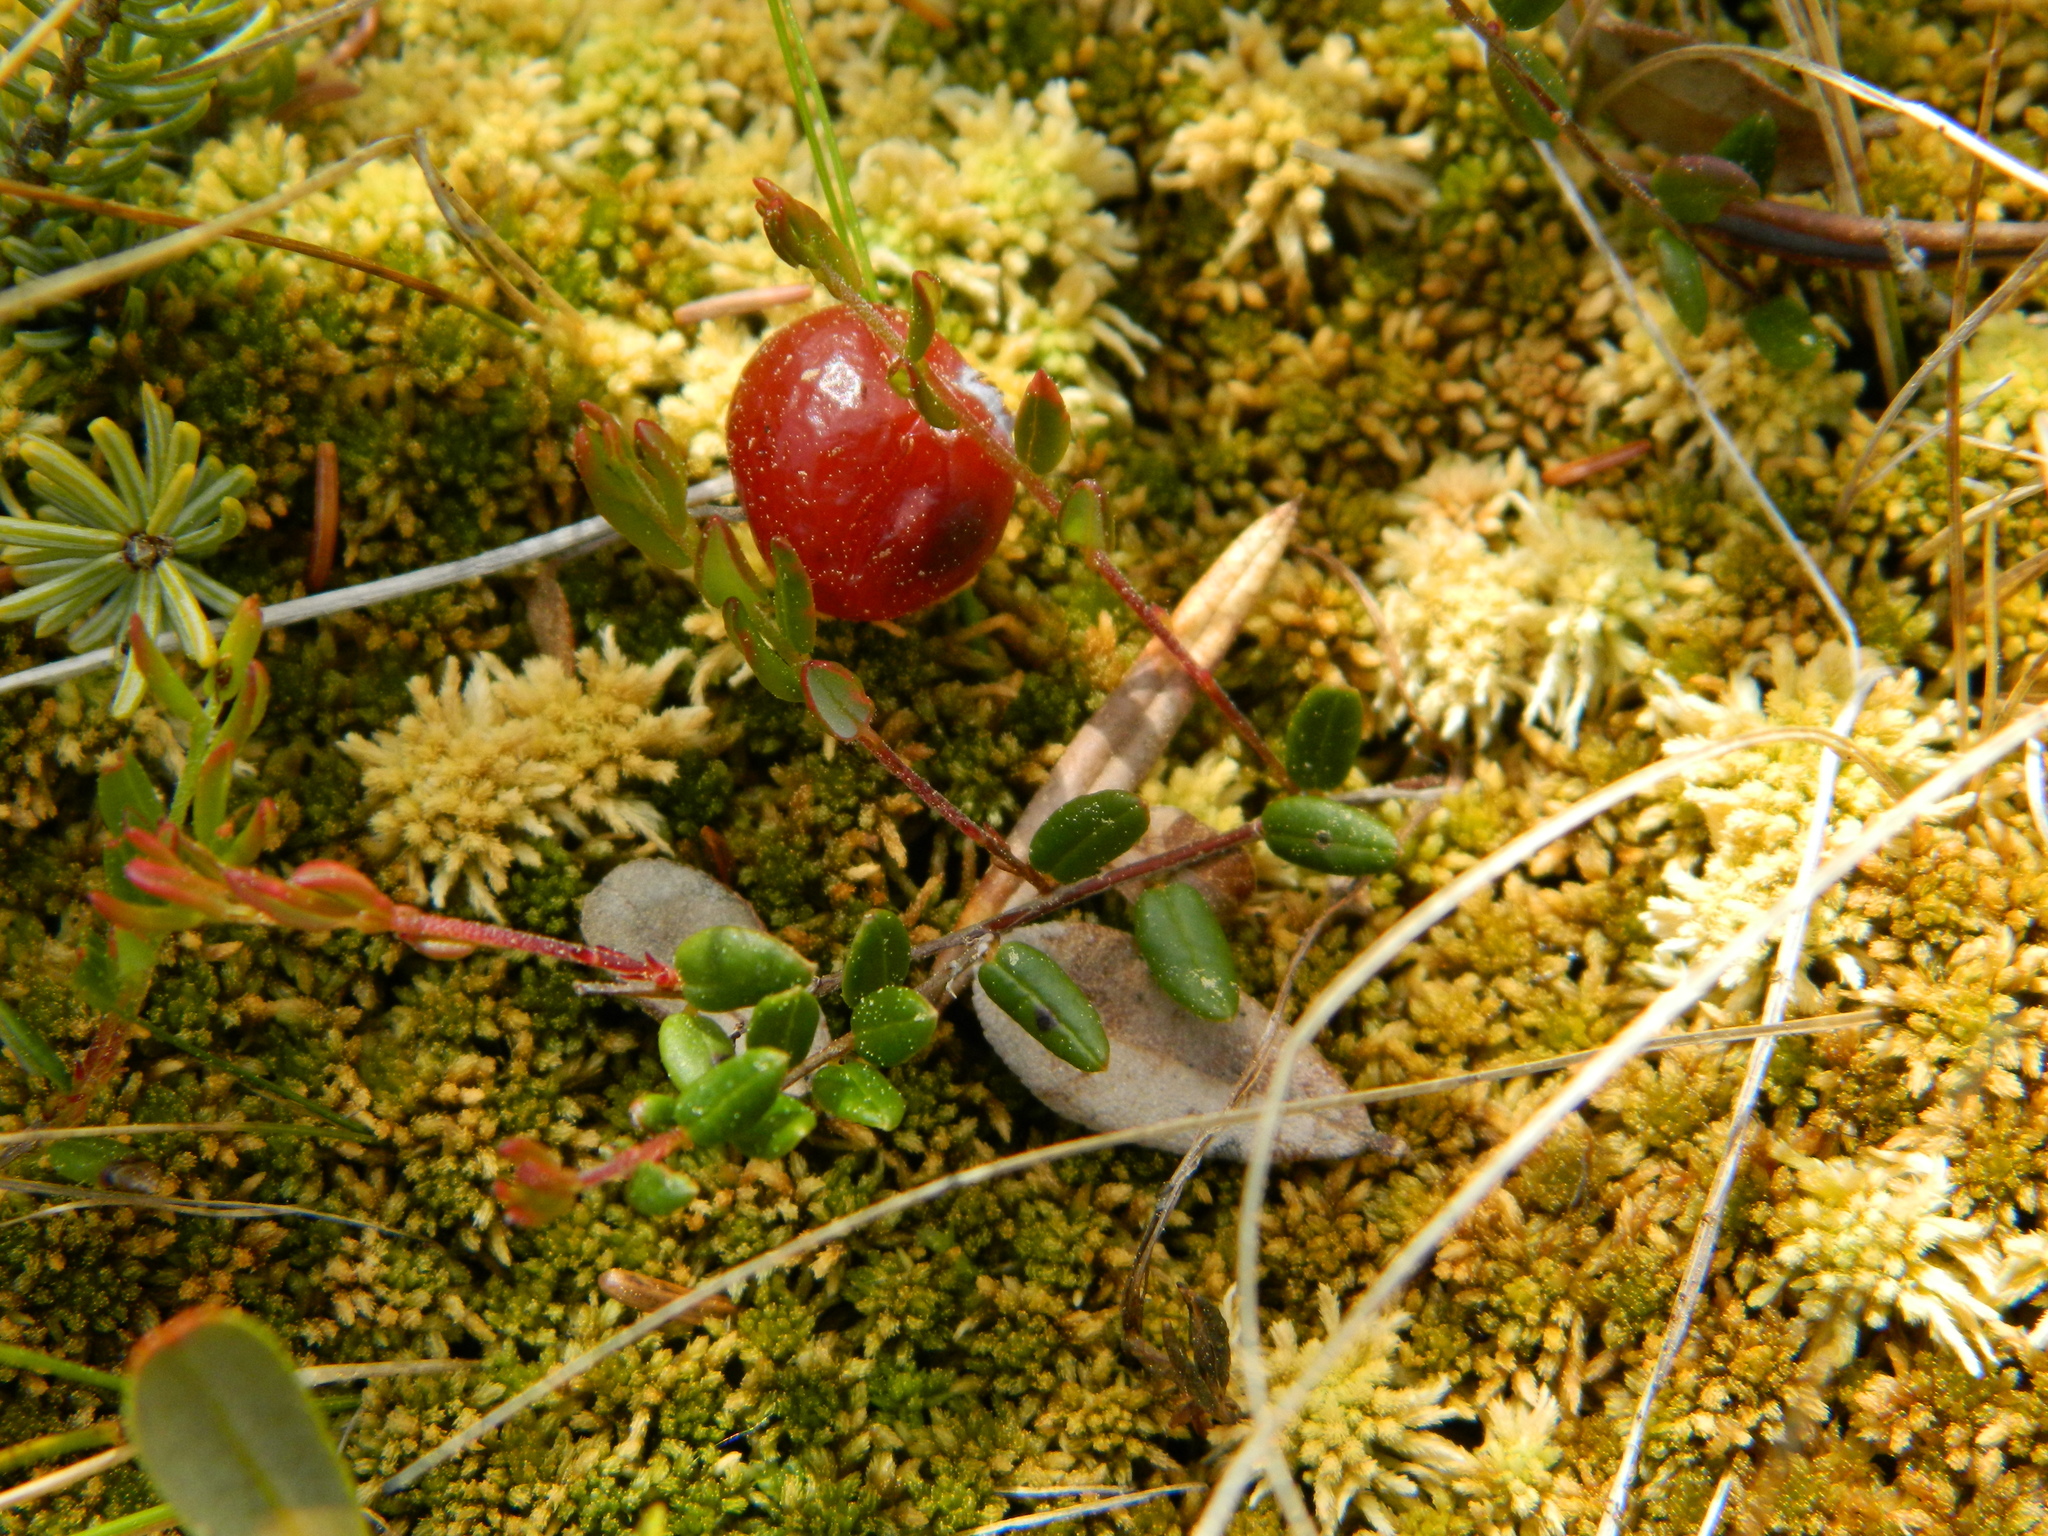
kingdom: Plantae
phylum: Tracheophyta
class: Magnoliopsida
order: Ericales
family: Ericaceae
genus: Vaccinium
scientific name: Vaccinium oxycoccos
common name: Cranberry
